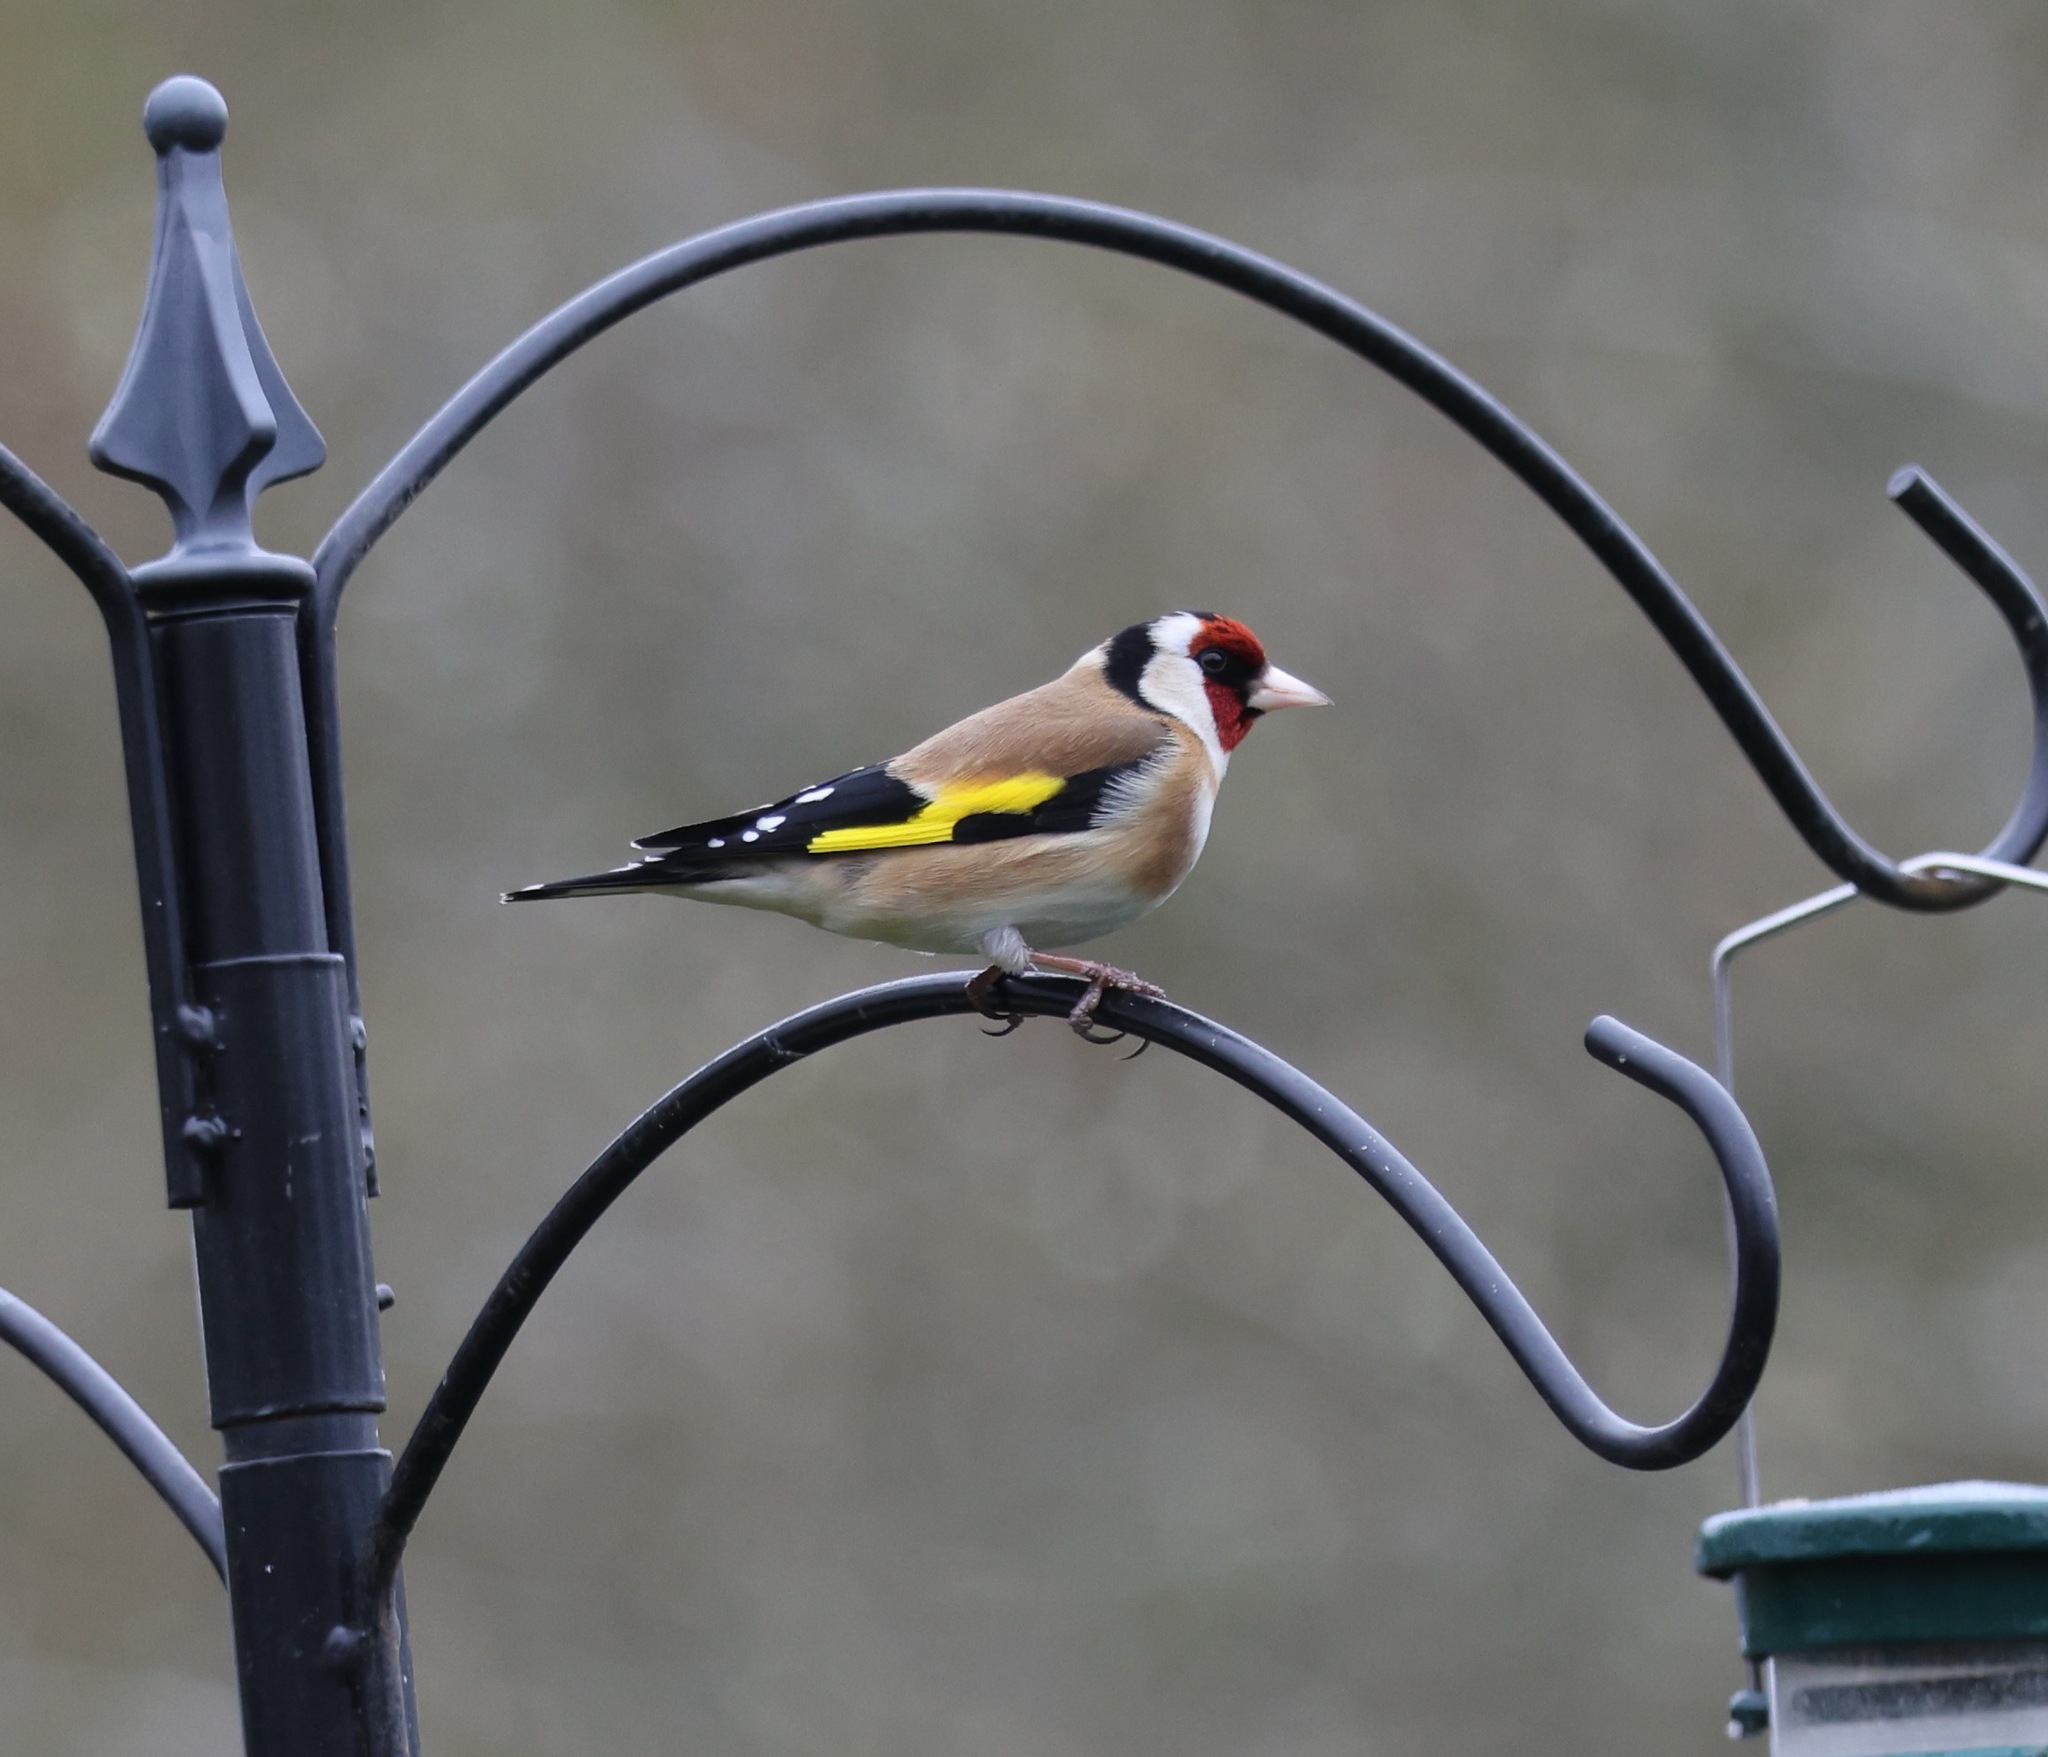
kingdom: Animalia
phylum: Chordata
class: Aves
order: Passeriformes
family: Fringillidae
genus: Carduelis
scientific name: Carduelis carduelis
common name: European goldfinch
